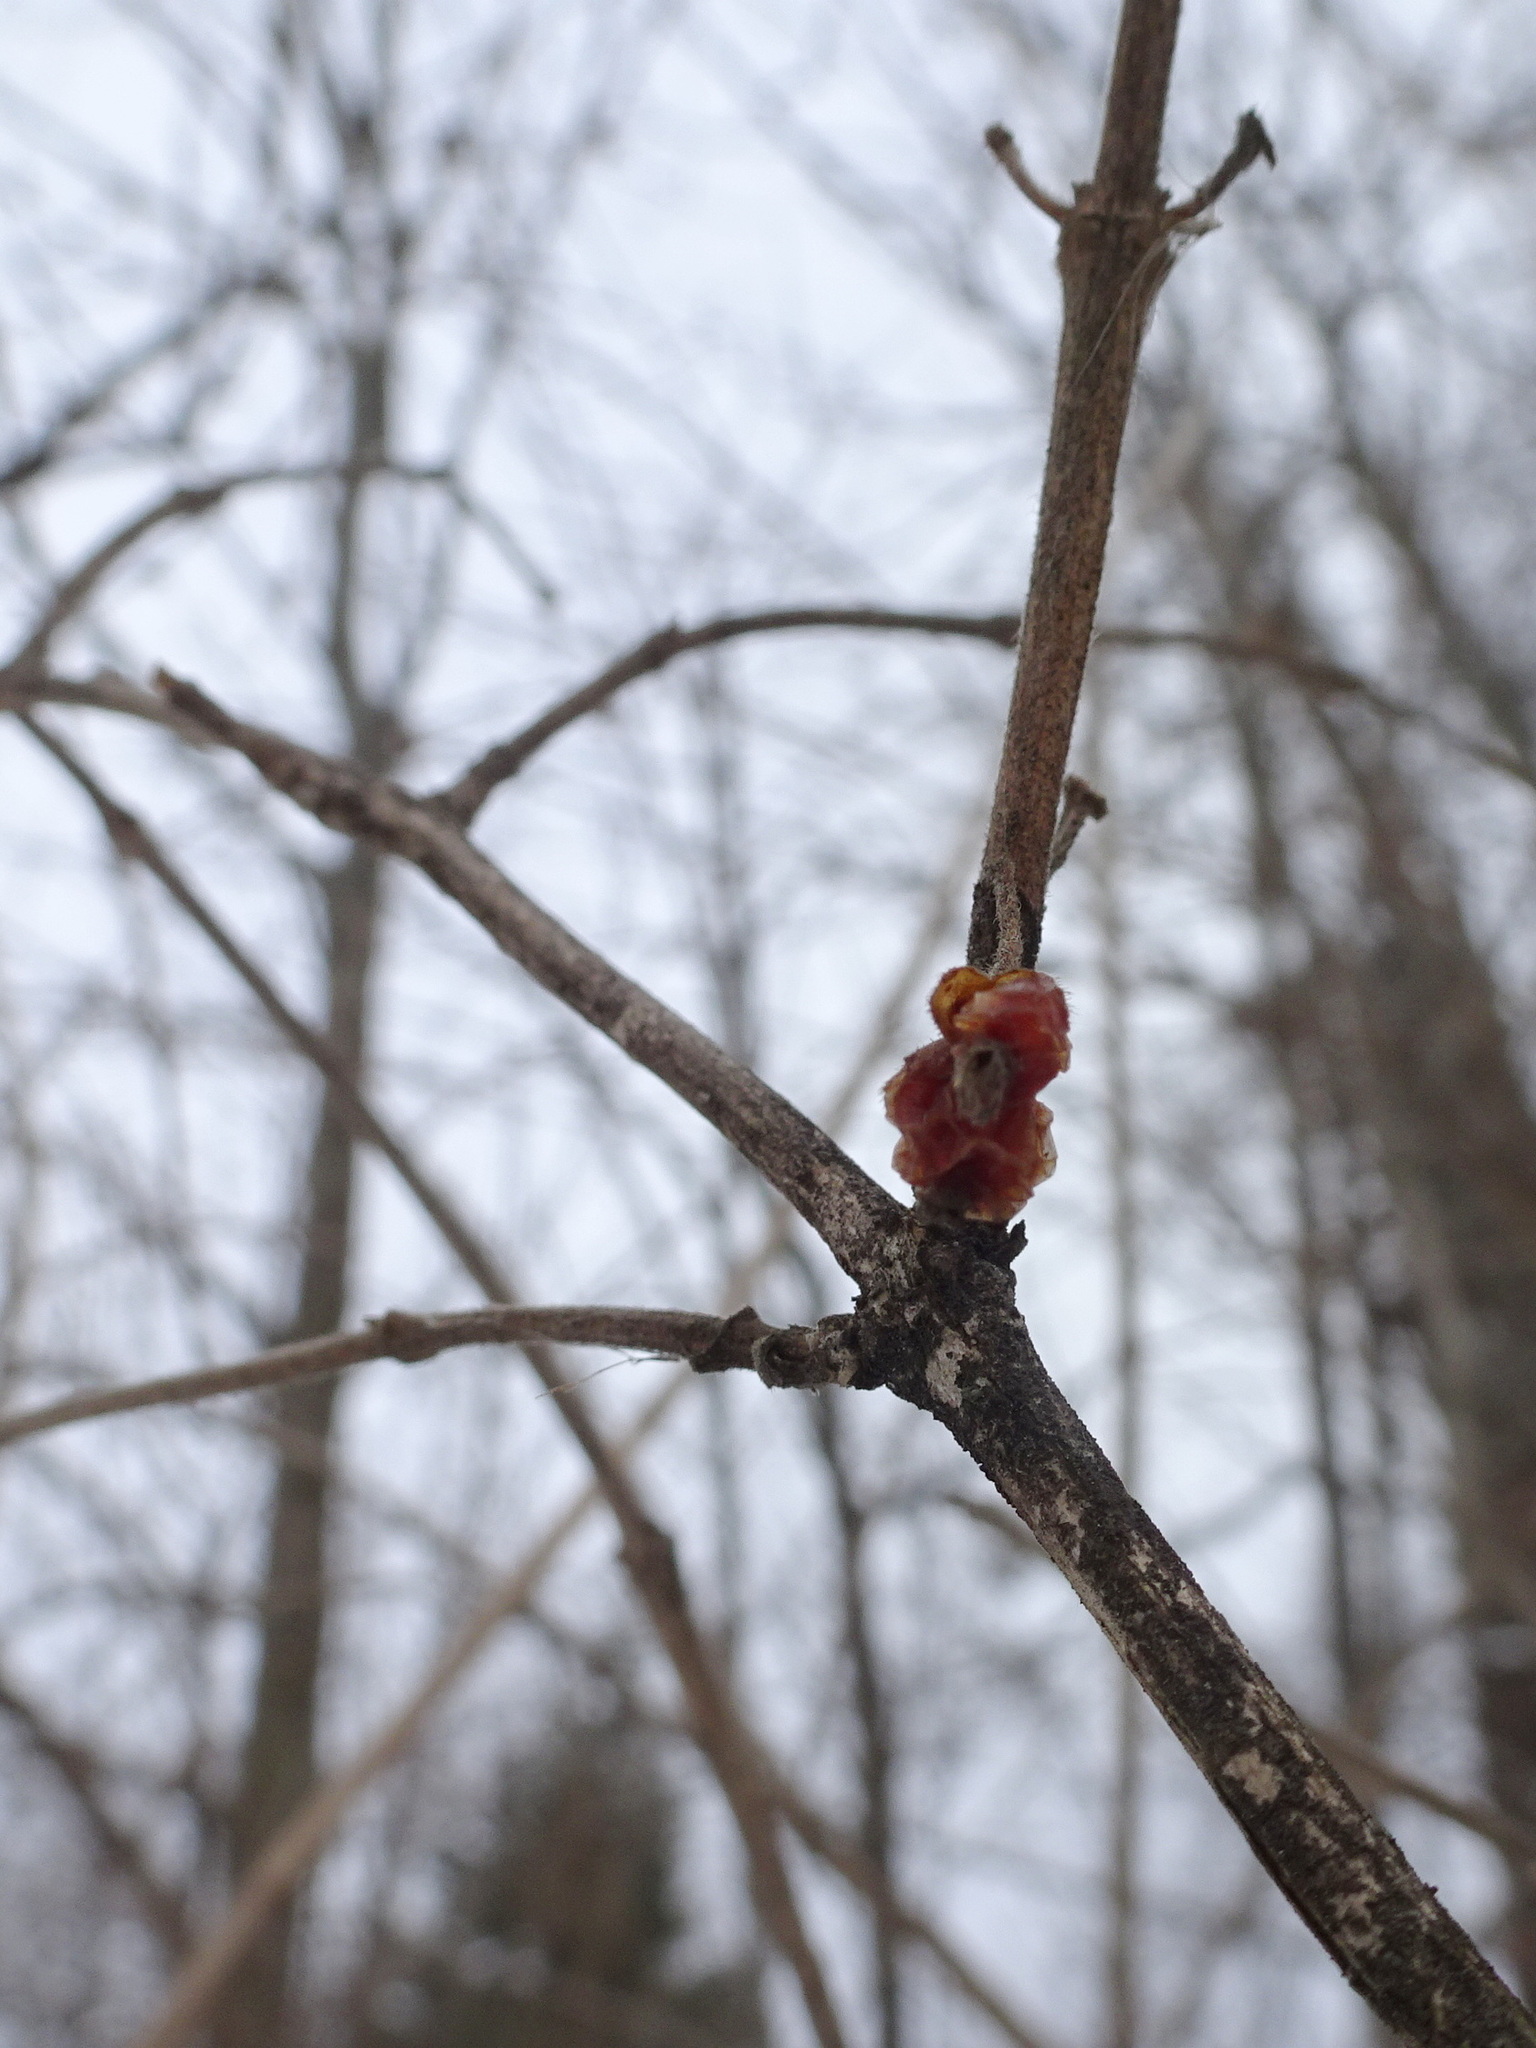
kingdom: Plantae
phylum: Tracheophyta
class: Magnoliopsida
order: Dipsacales
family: Caprifoliaceae
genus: Lonicera
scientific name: Lonicera maackii
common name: Amur honeysuckle
